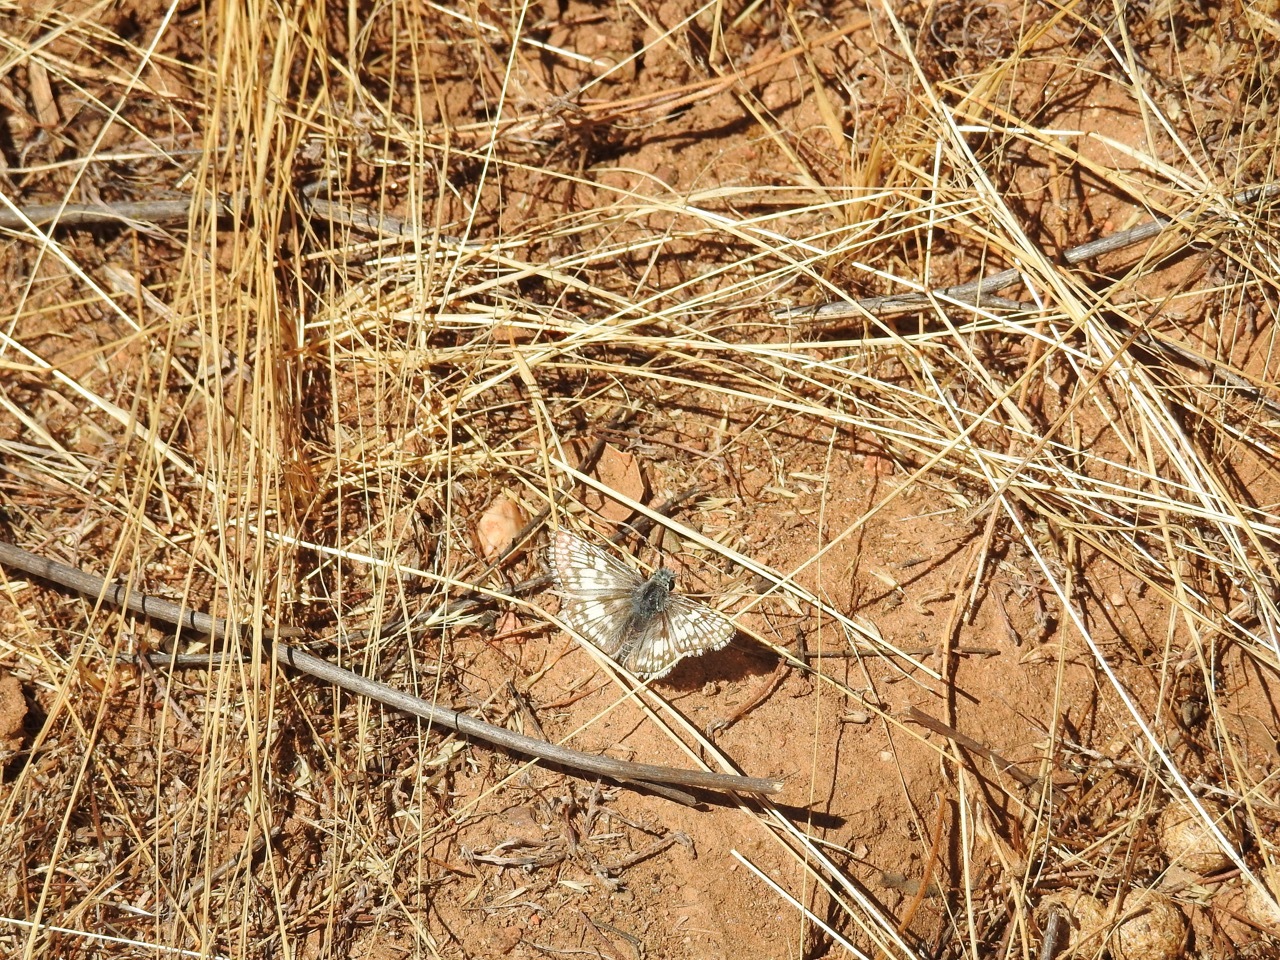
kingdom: Animalia
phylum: Arthropoda
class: Insecta
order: Lepidoptera
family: Hesperiidae
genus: Burnsius
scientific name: Burnsius albezens
